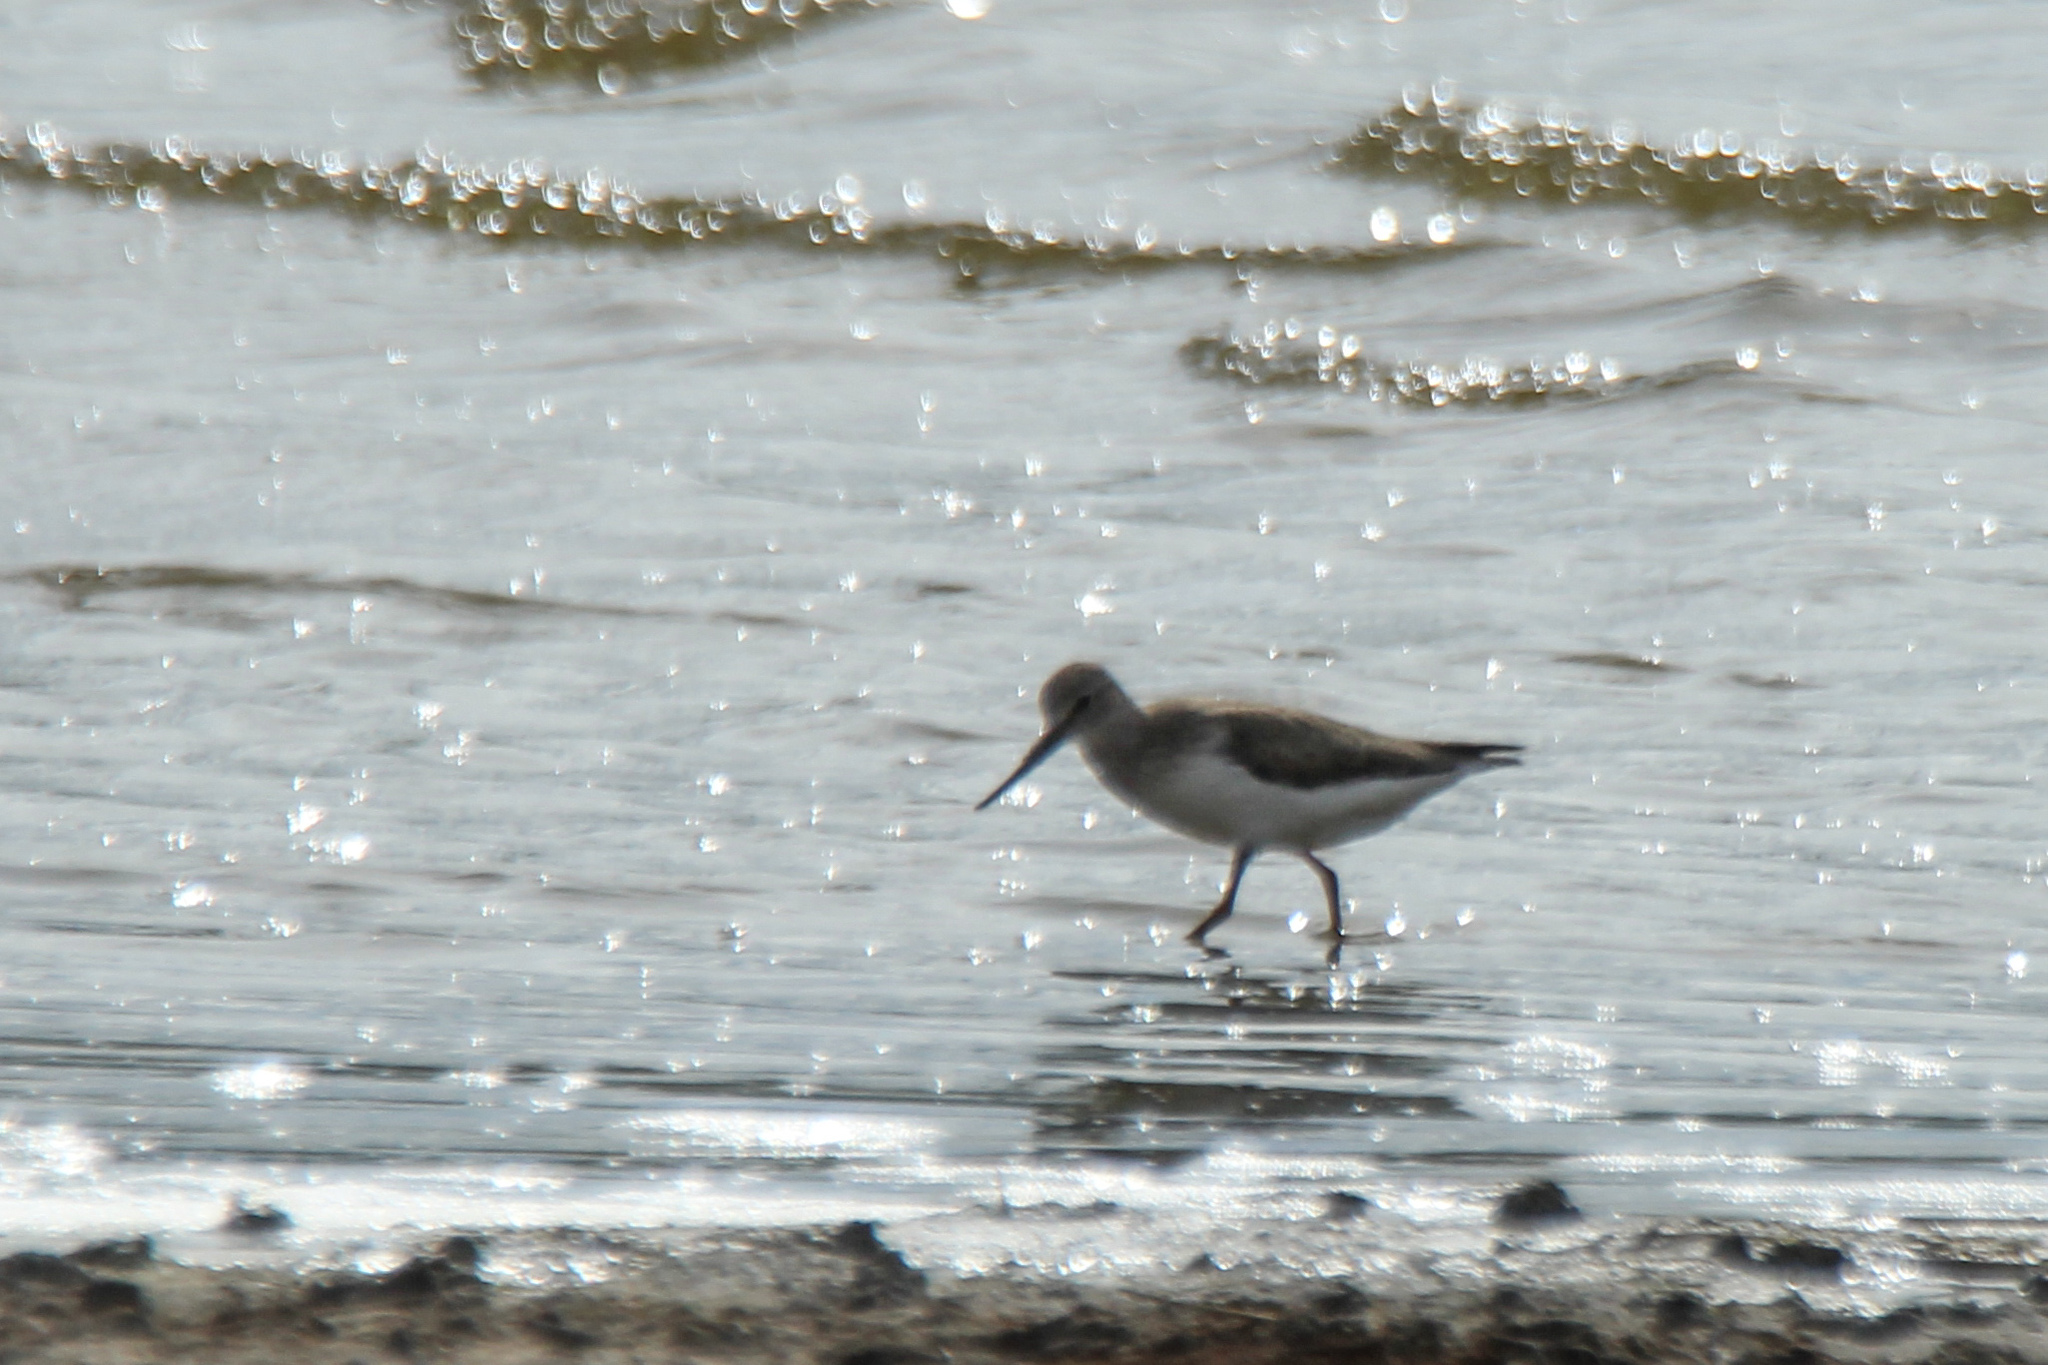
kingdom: Animalia
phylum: Chordata
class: Aves
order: Charadriiformes
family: Scolopacidae
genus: Xenus
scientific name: Xenus cinereus
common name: Terek sandpiper
